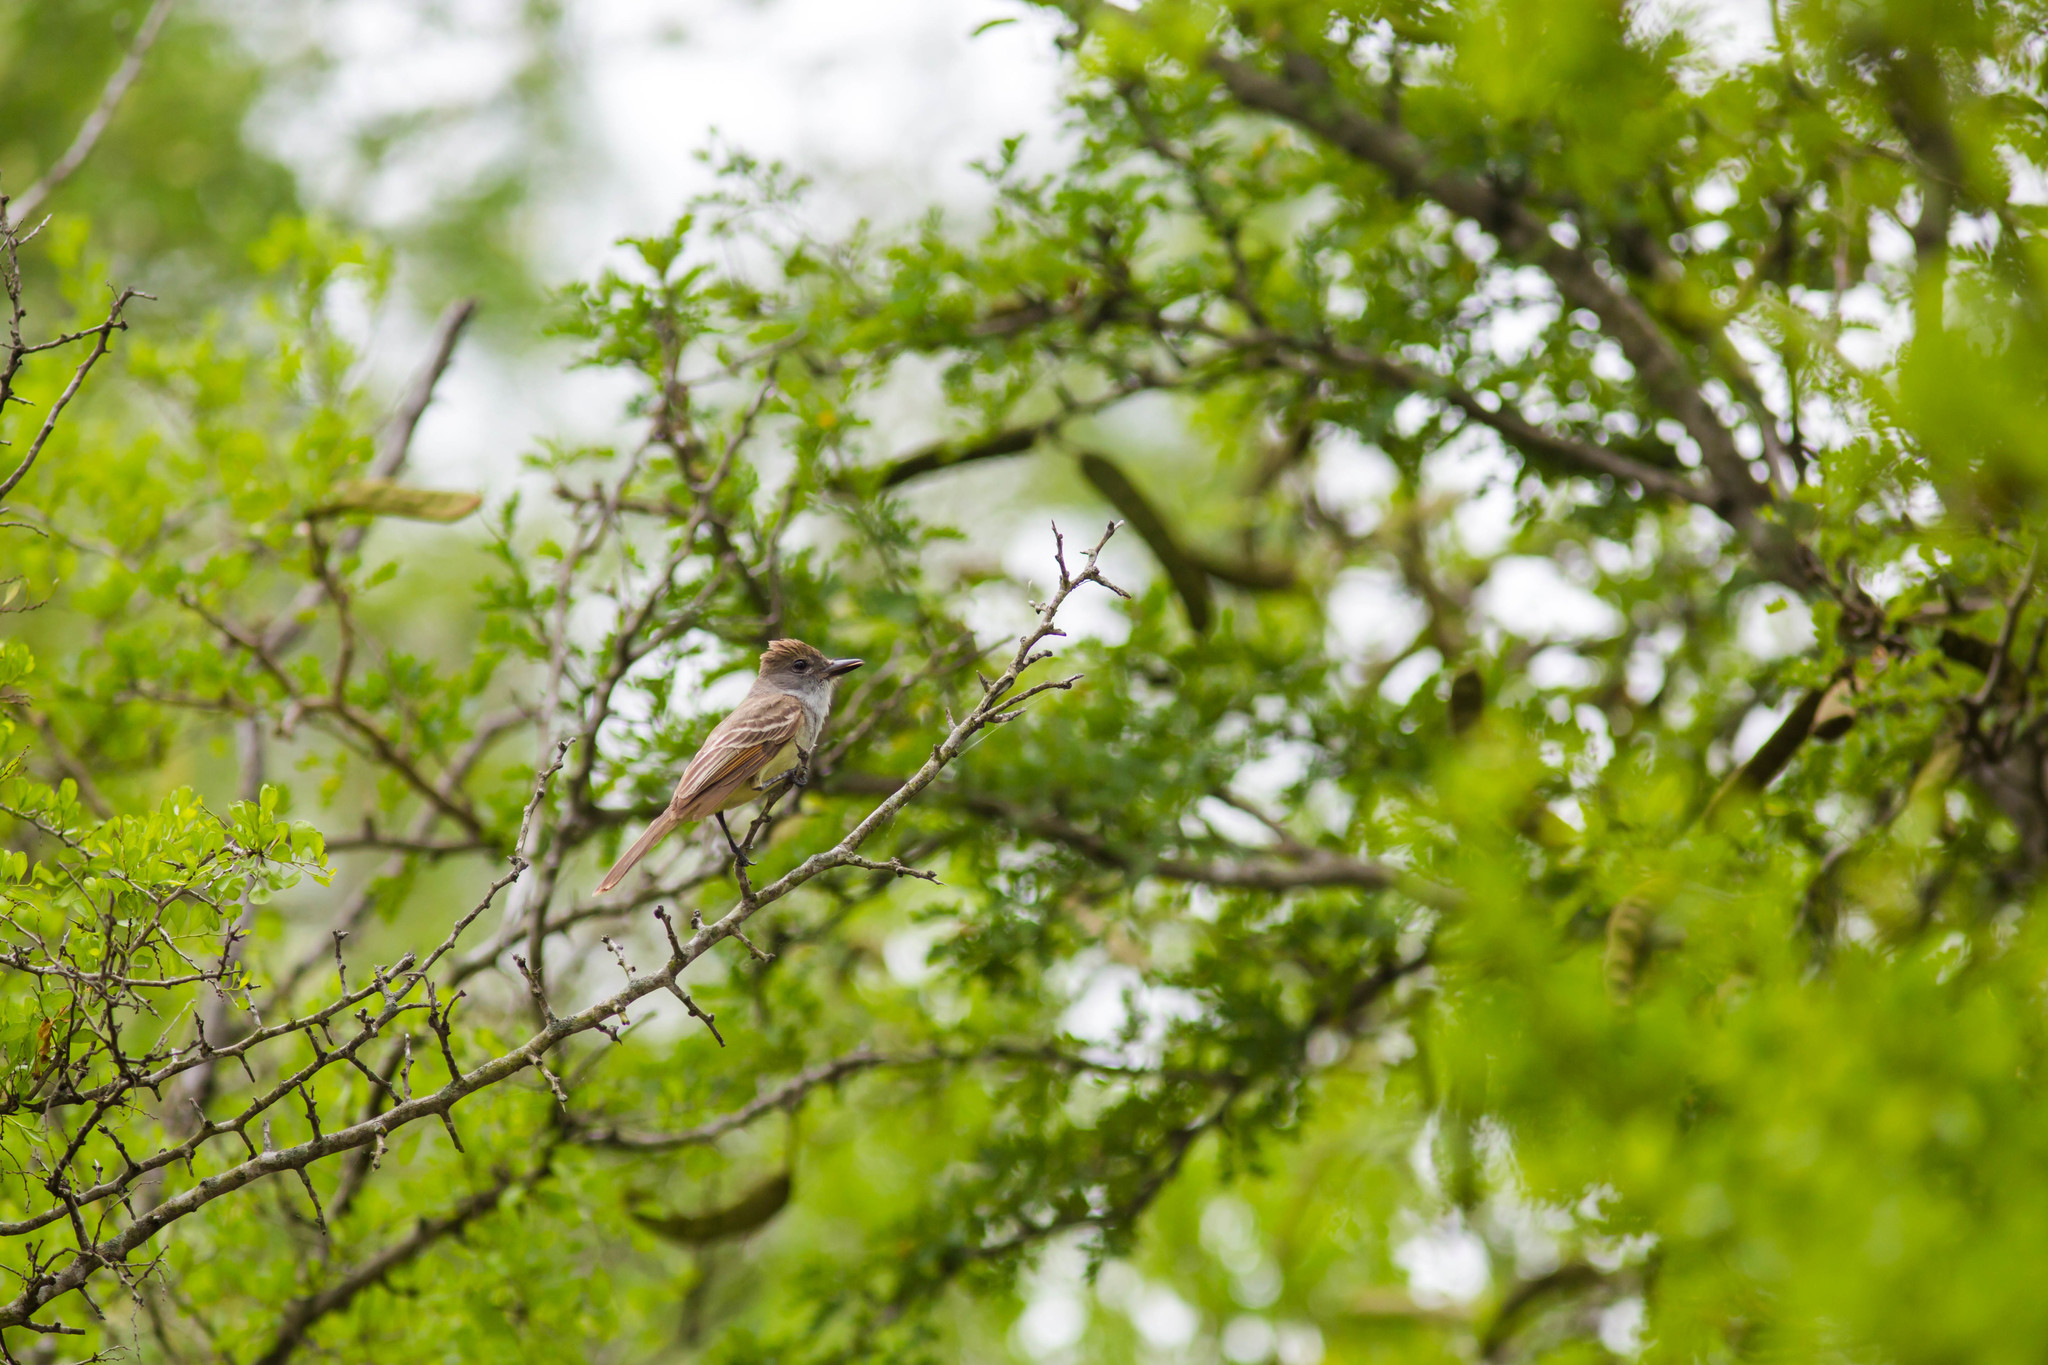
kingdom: Animalia
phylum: Chordata
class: Aves
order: Passeriformes
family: Tyrannidae
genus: Myiarchus
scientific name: Myiarchus tyrannulus
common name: Brown-crested flycatcher
